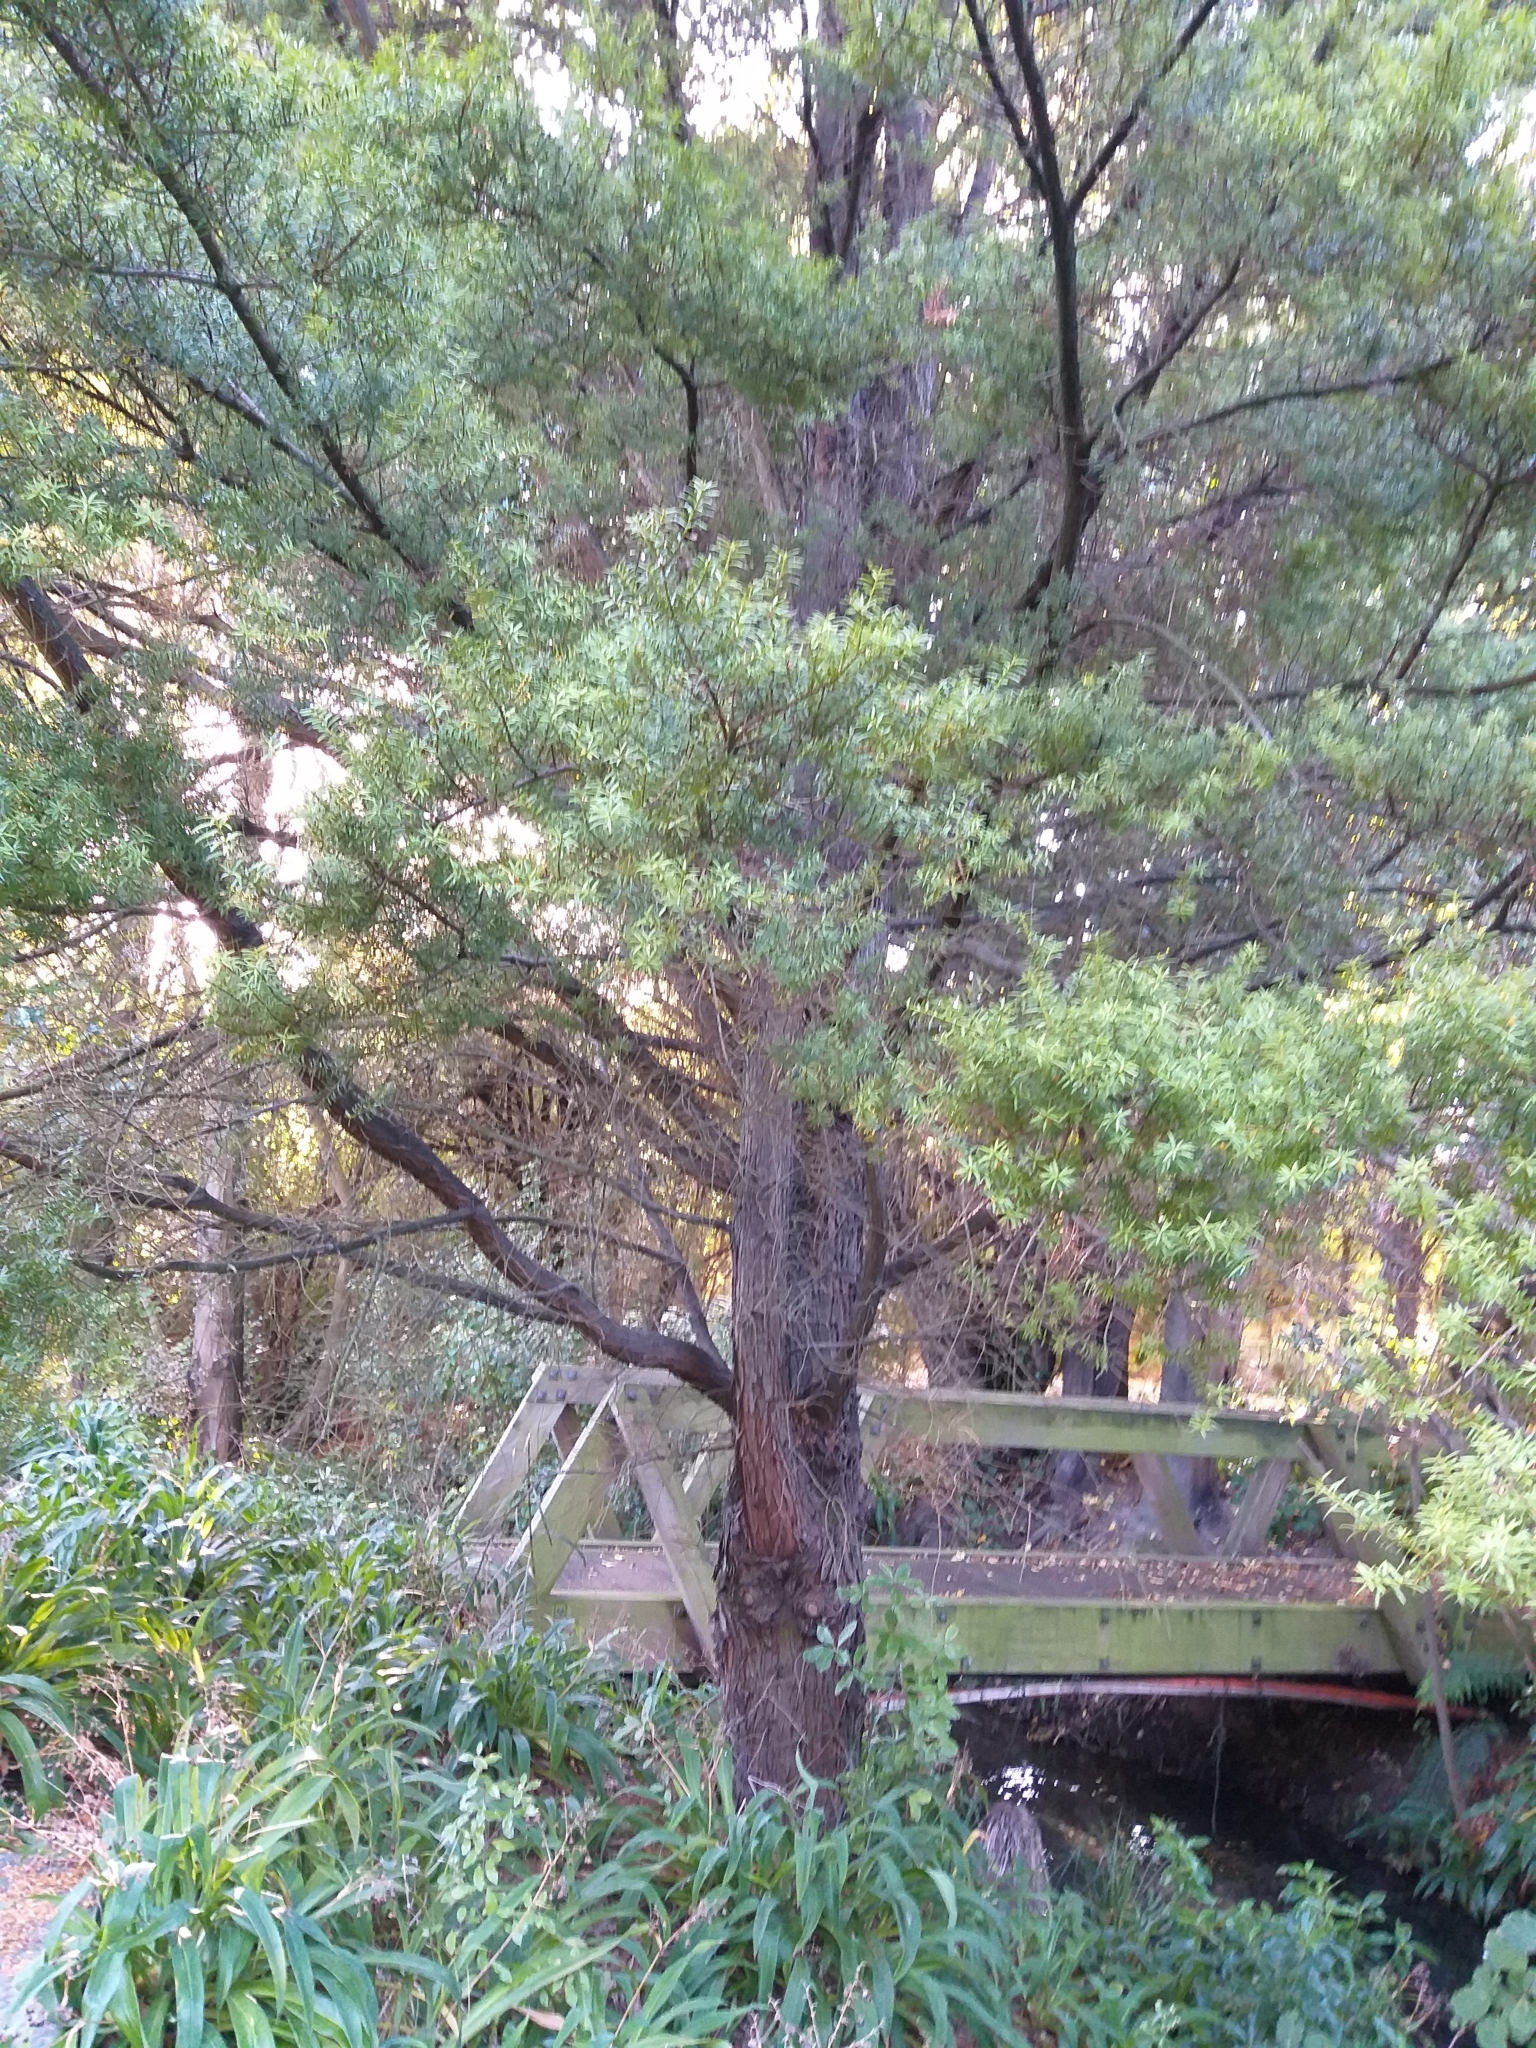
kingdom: Plantae
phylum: Tracheophyta
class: Pinopsida
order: Pinales
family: Podocarpaceae
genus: Podocarpus
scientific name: Podocarpus totara
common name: Totara
